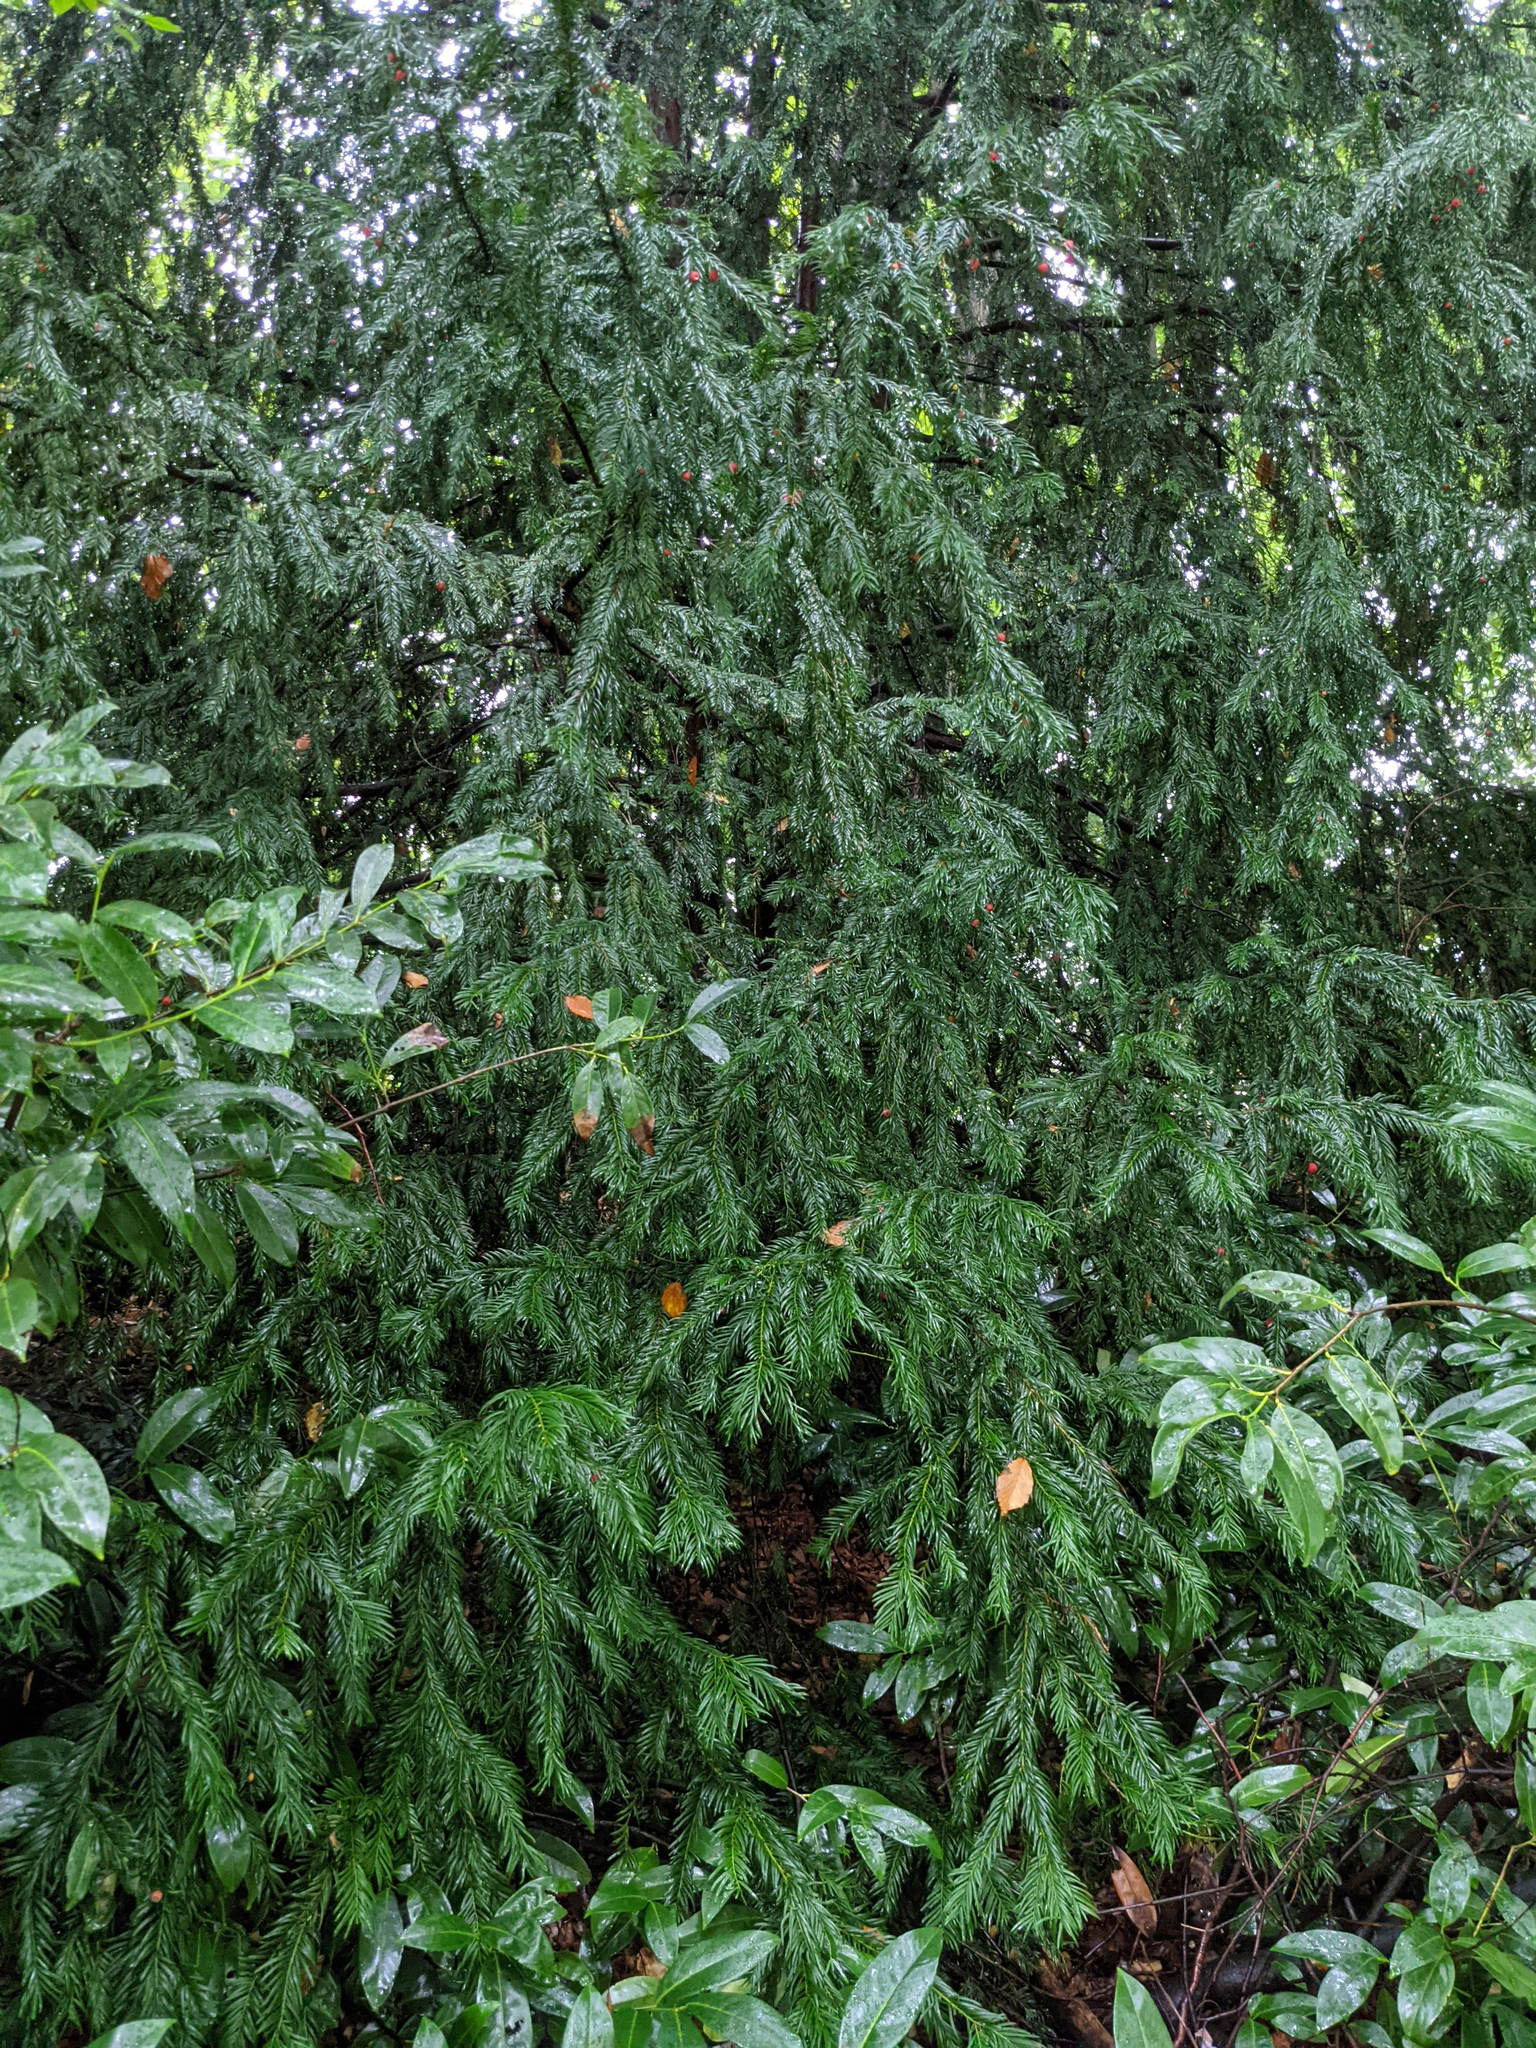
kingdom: Plantae
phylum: Tracheophyta
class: Pinopsida
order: Pinales
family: Taxaceae
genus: Taxus
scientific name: Taxus baccata
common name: Yew
